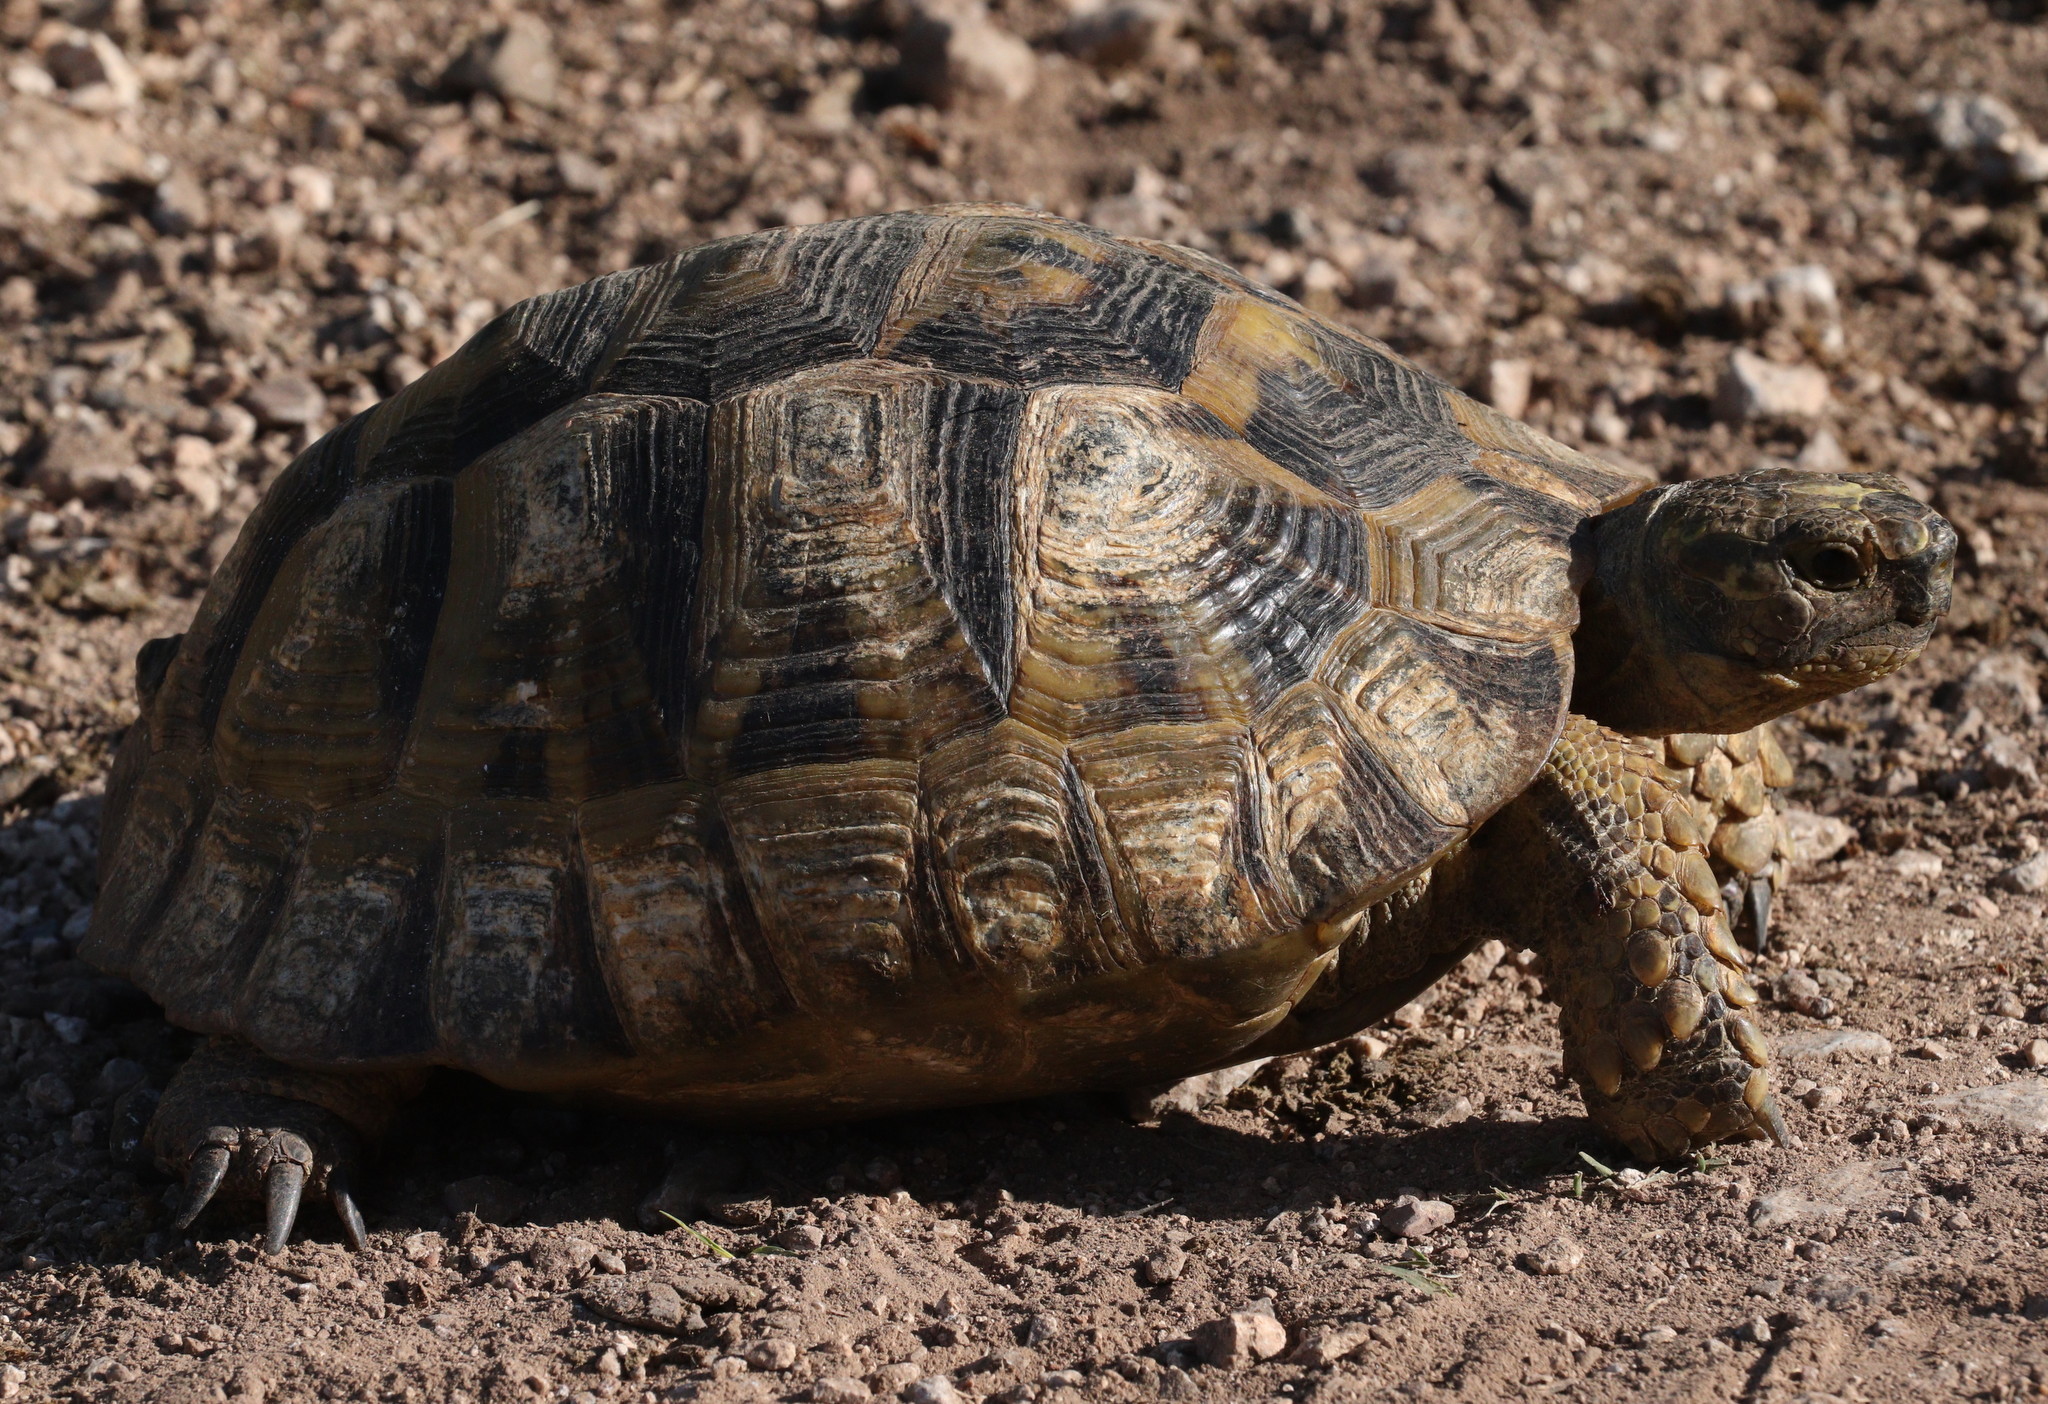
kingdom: Animalia
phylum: Chordata
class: Testudines
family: Testudinidae
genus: Testudo
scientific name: Testudo graeca
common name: Common tortoise
